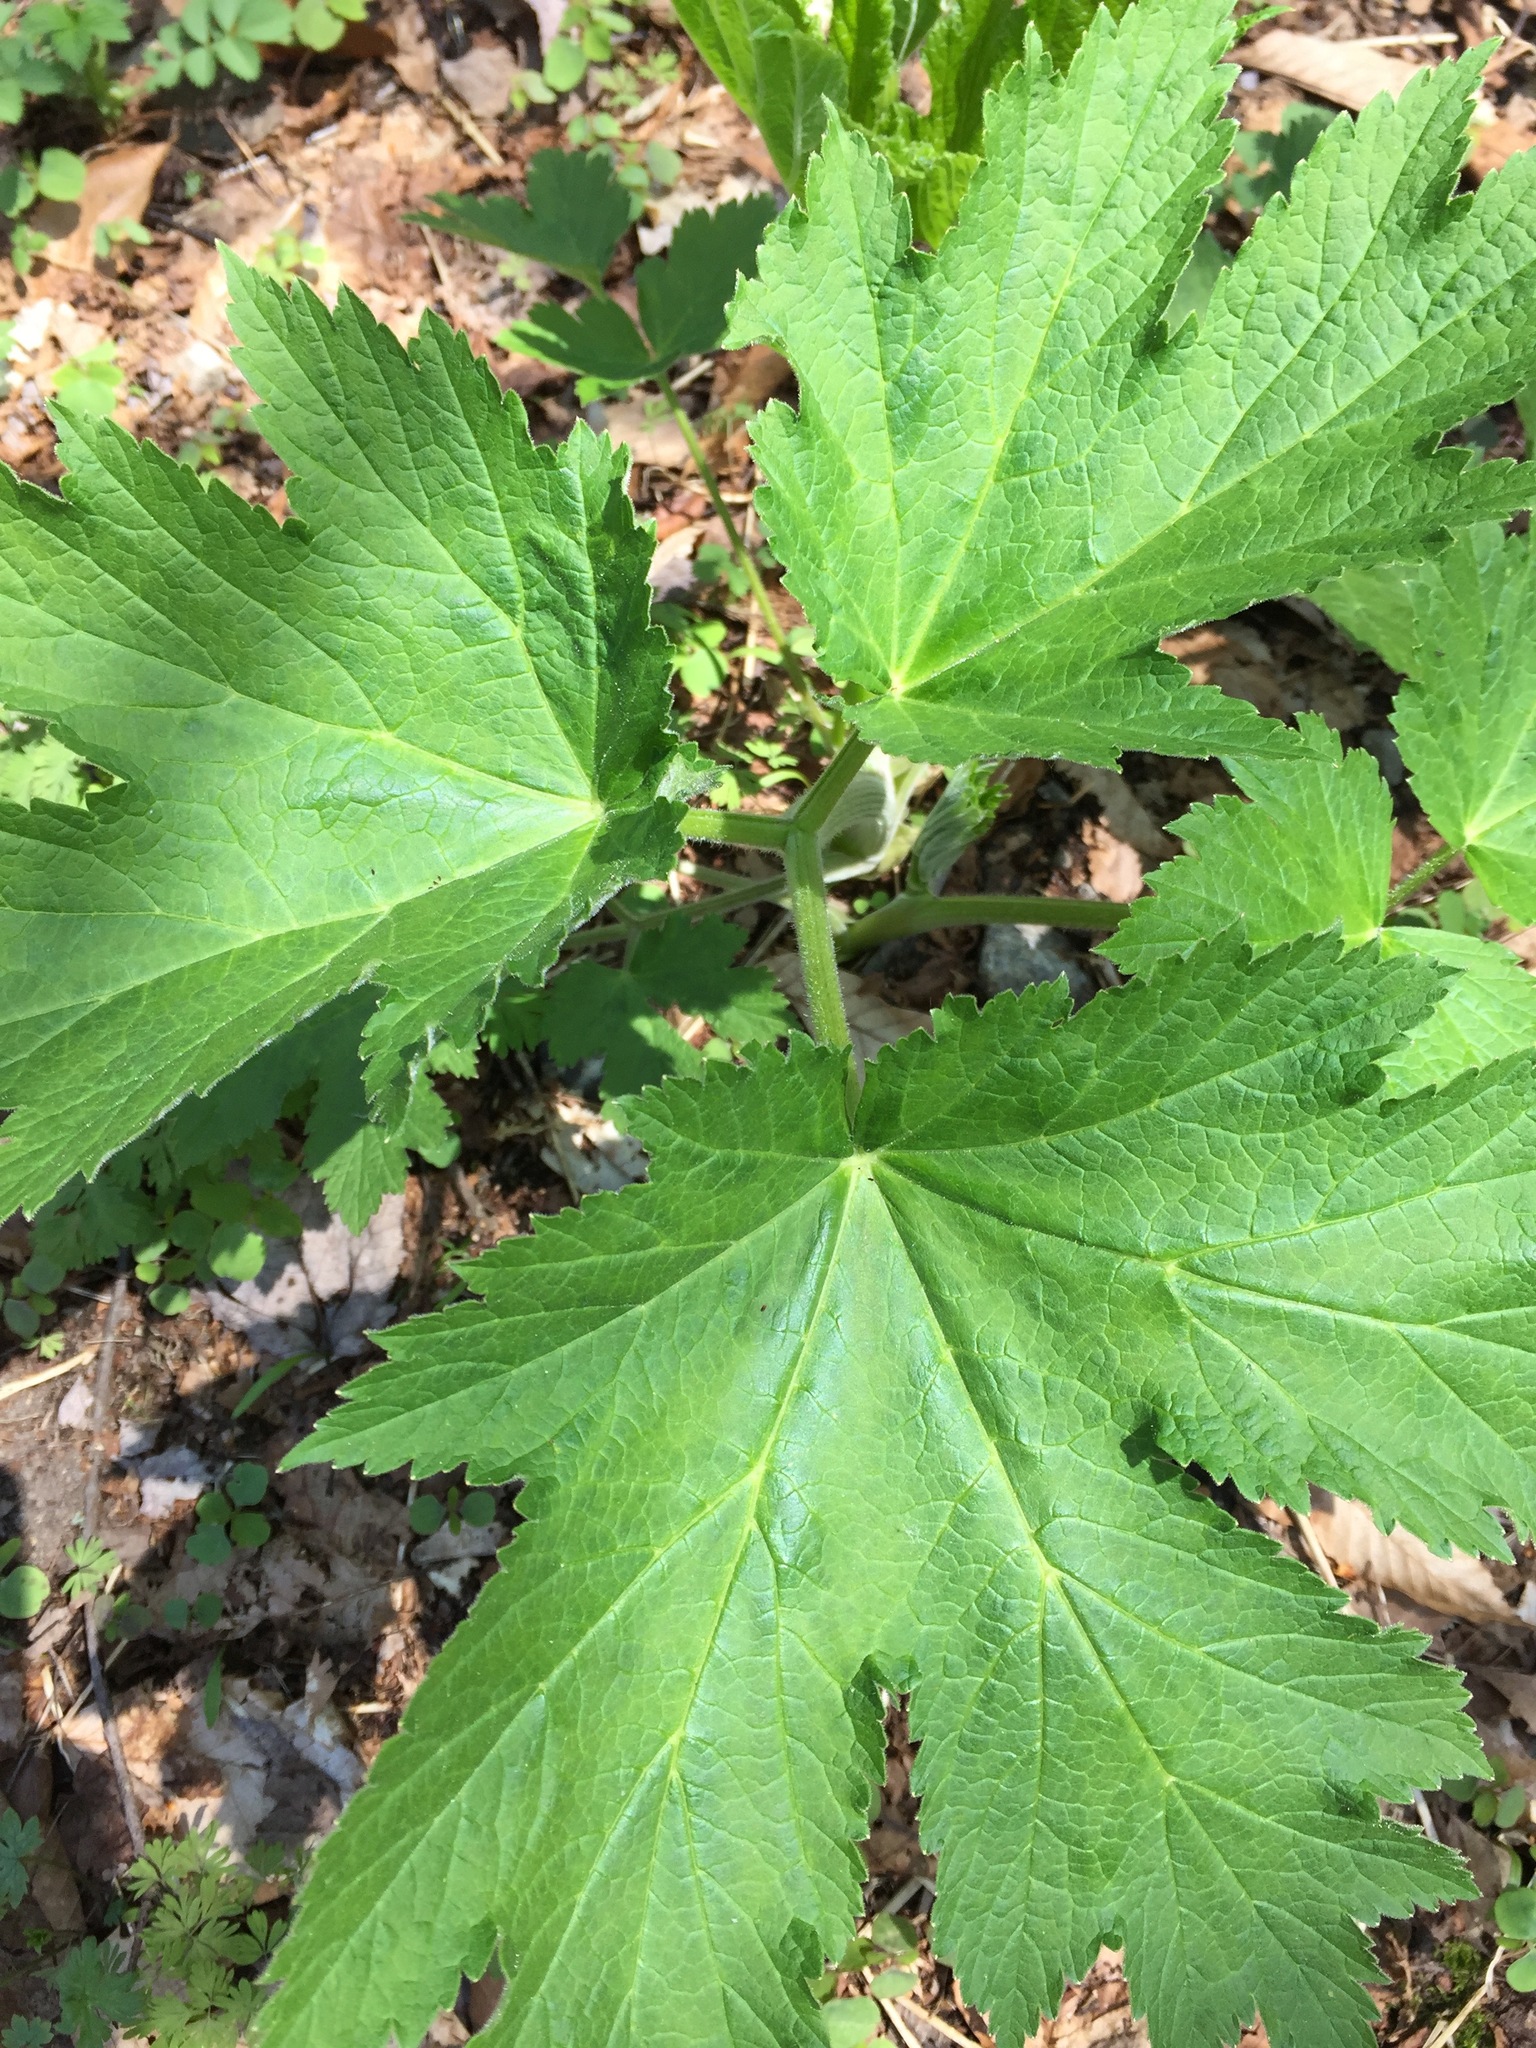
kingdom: Plantae
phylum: Tracheophyta
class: Magnoliopsida
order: Apiales
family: Apiaceae
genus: Heracleum
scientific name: Heracleum maximum
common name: American cow parsnip
